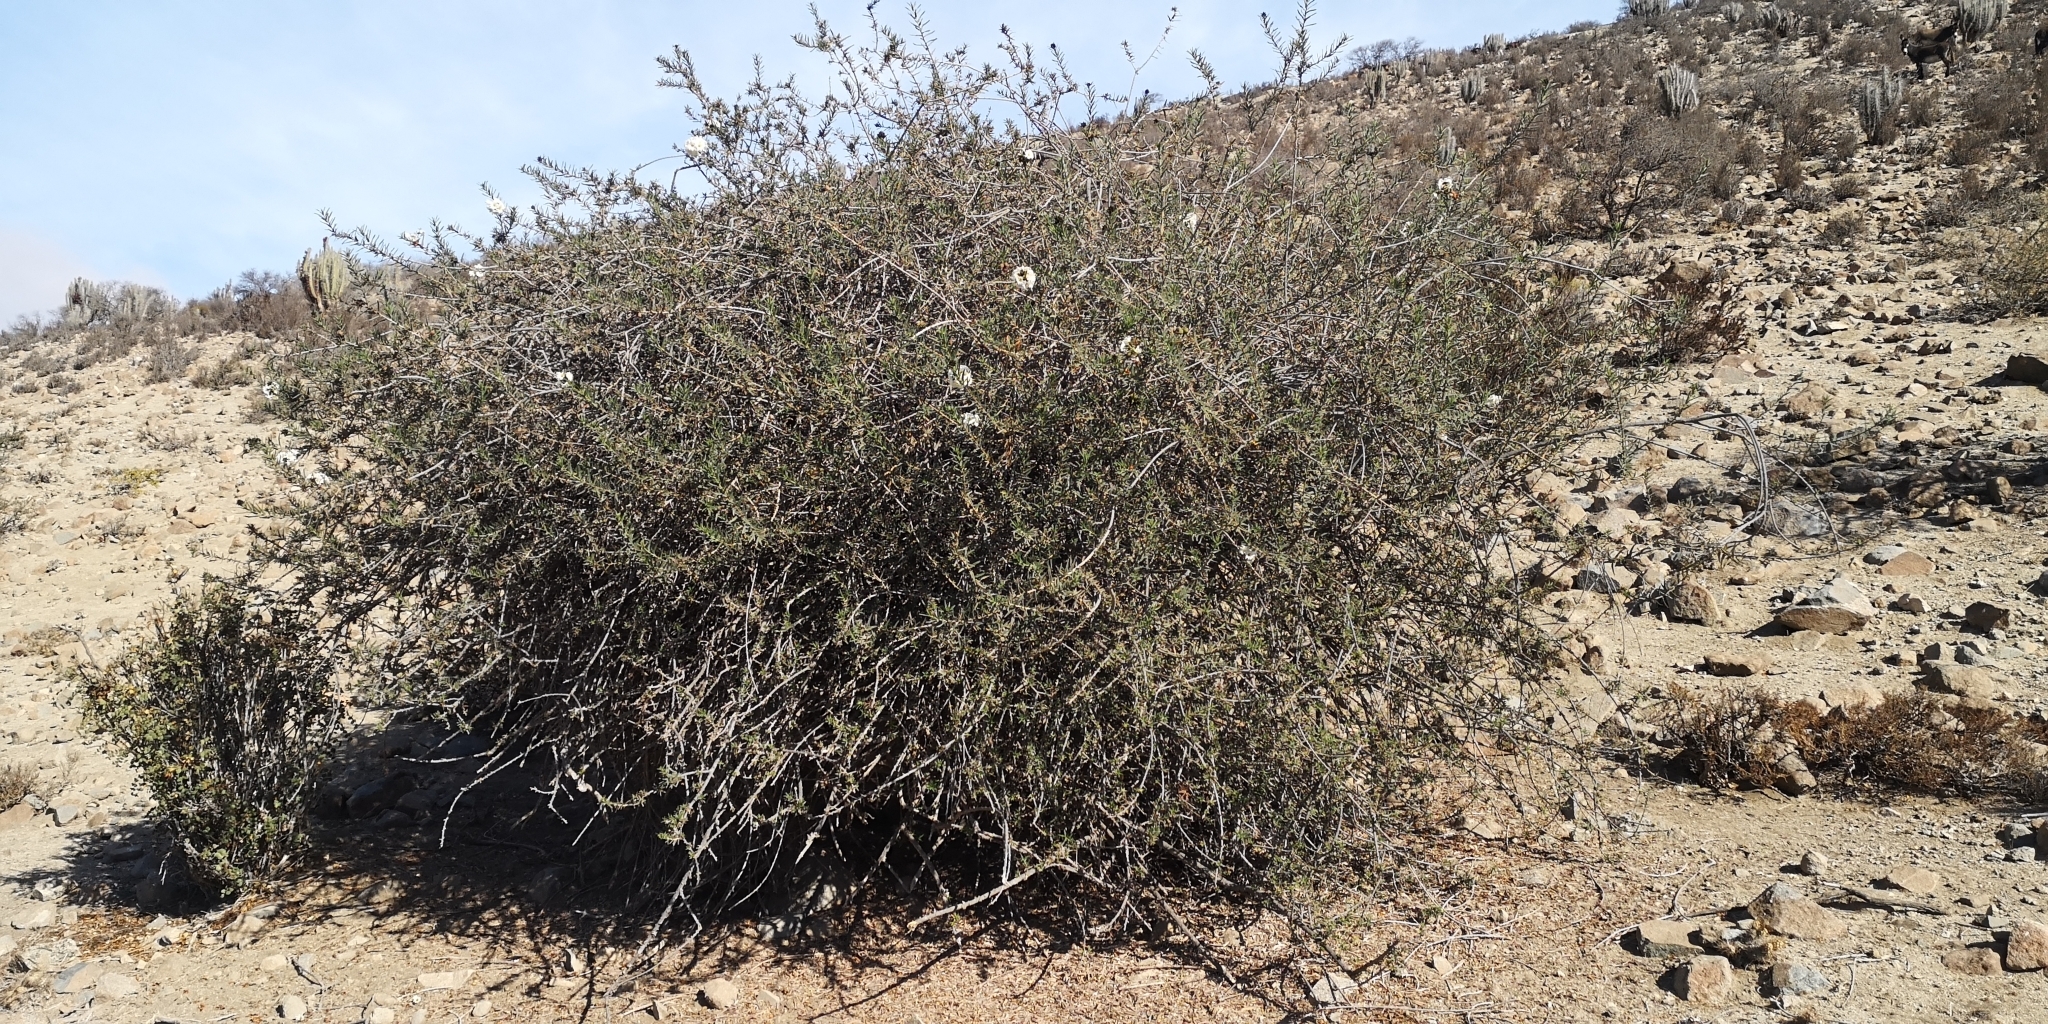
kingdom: Plantae
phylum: Tracheophyta
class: Magnoliopsida
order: Boraginales
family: Cordiaceae
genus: Cordia
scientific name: Cordia decandra
